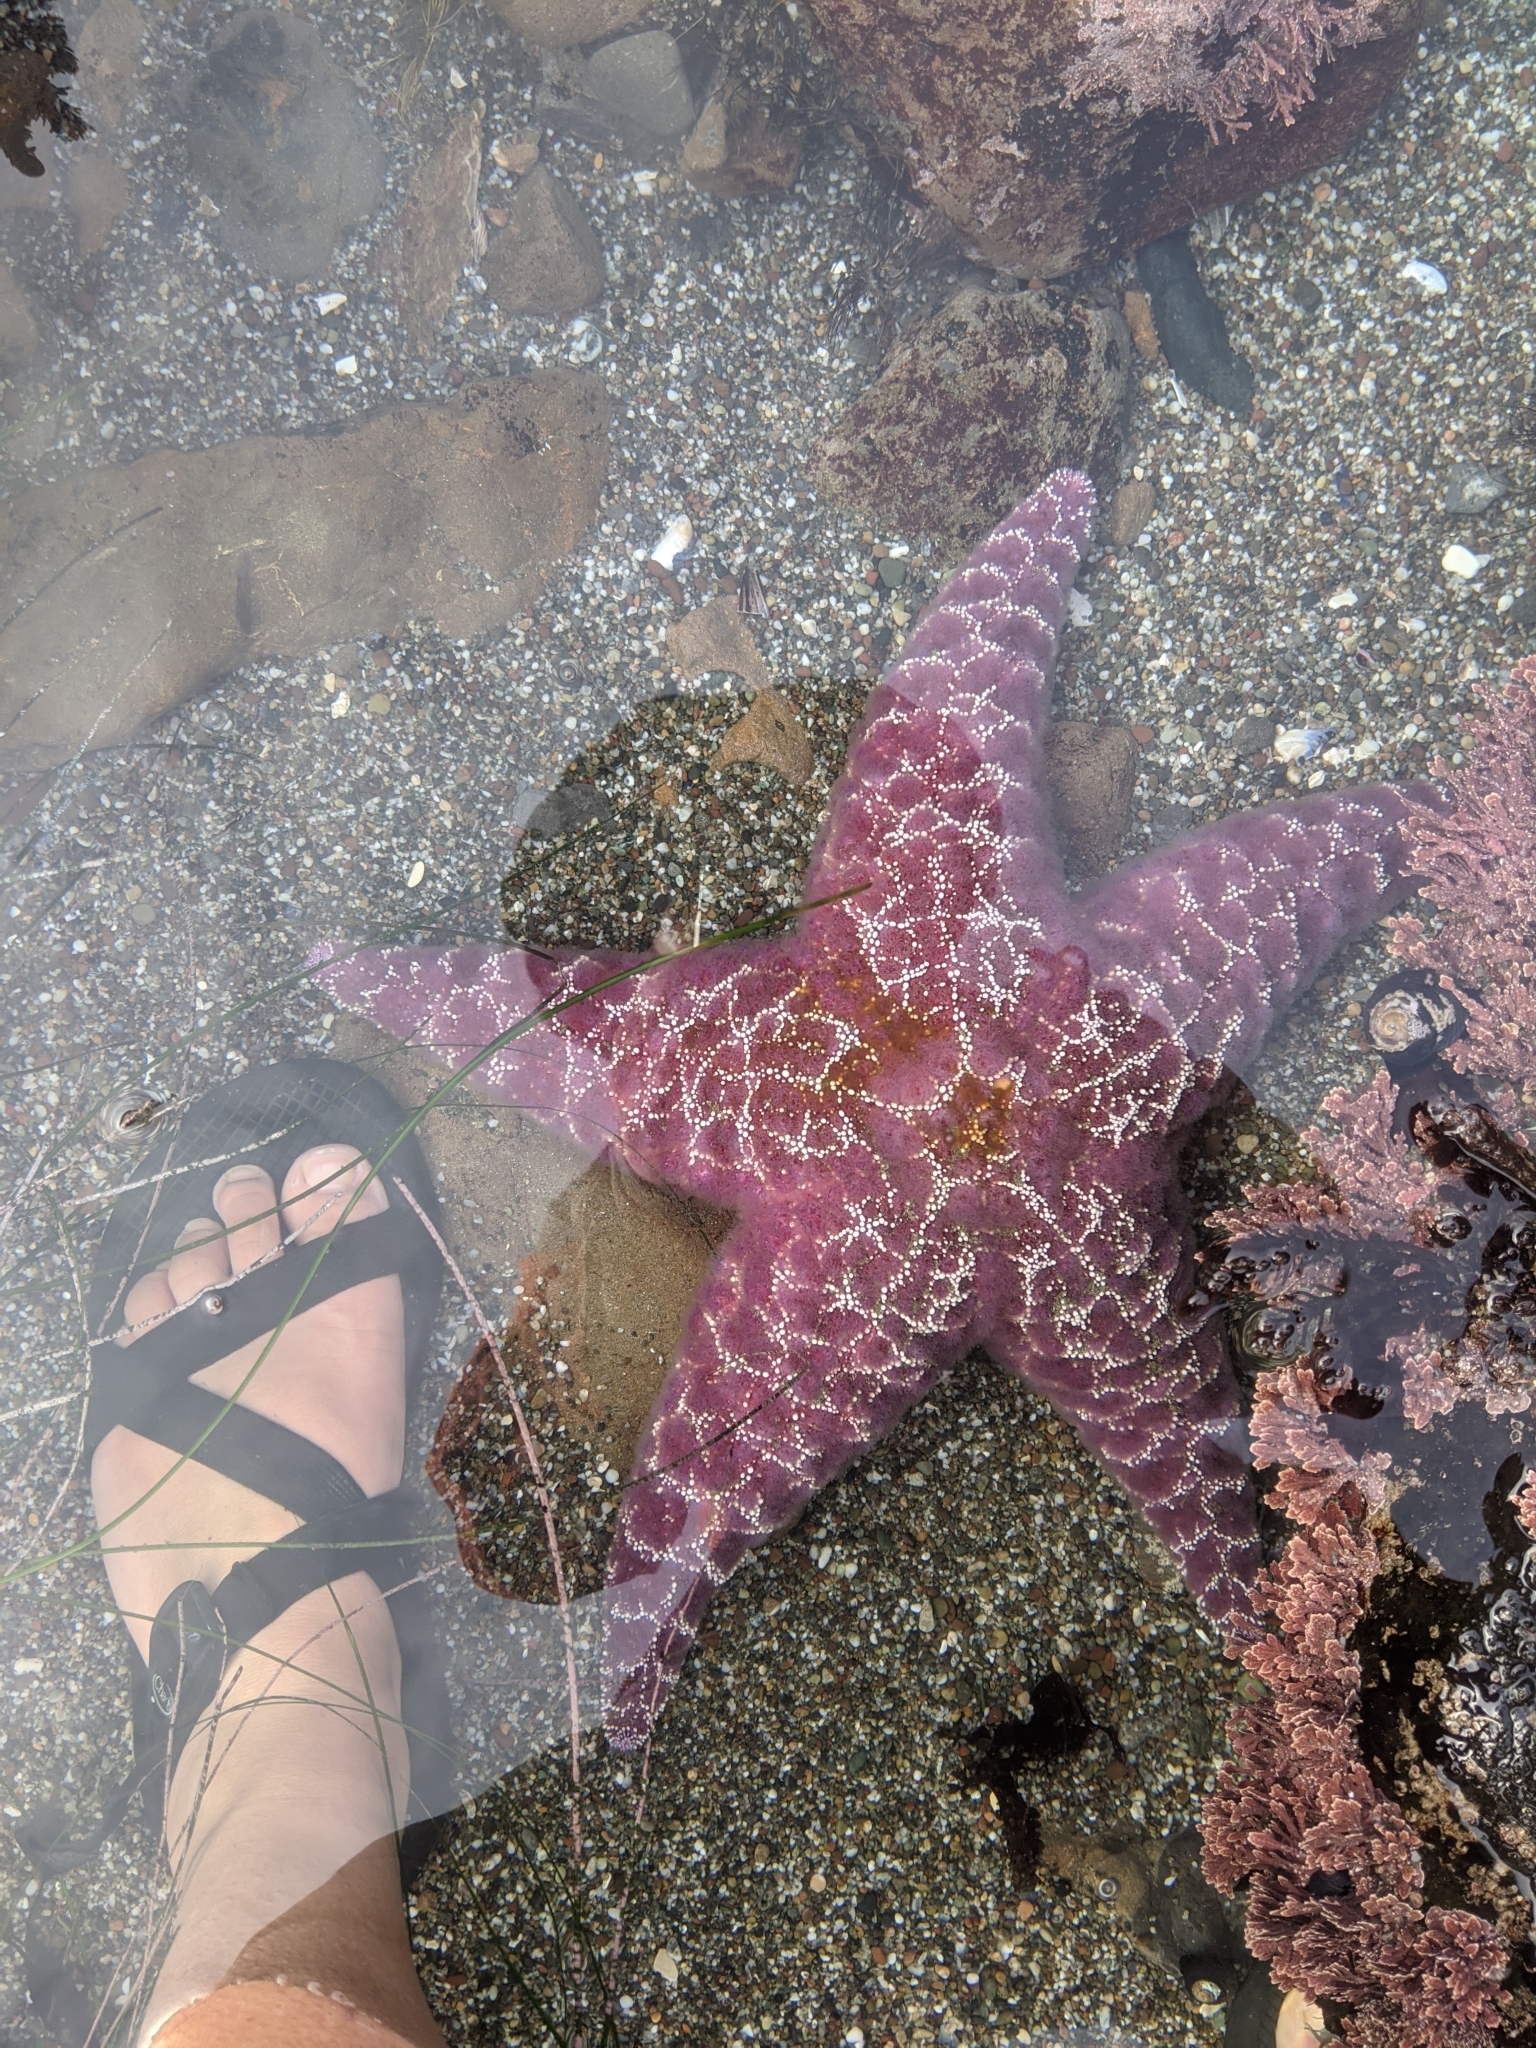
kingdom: Animalia
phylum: Echinodermata
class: Asteroidea
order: Forcipulatida
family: Asteriidae
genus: Pisaster
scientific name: Pisaster ochraceus
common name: Ochre stars
